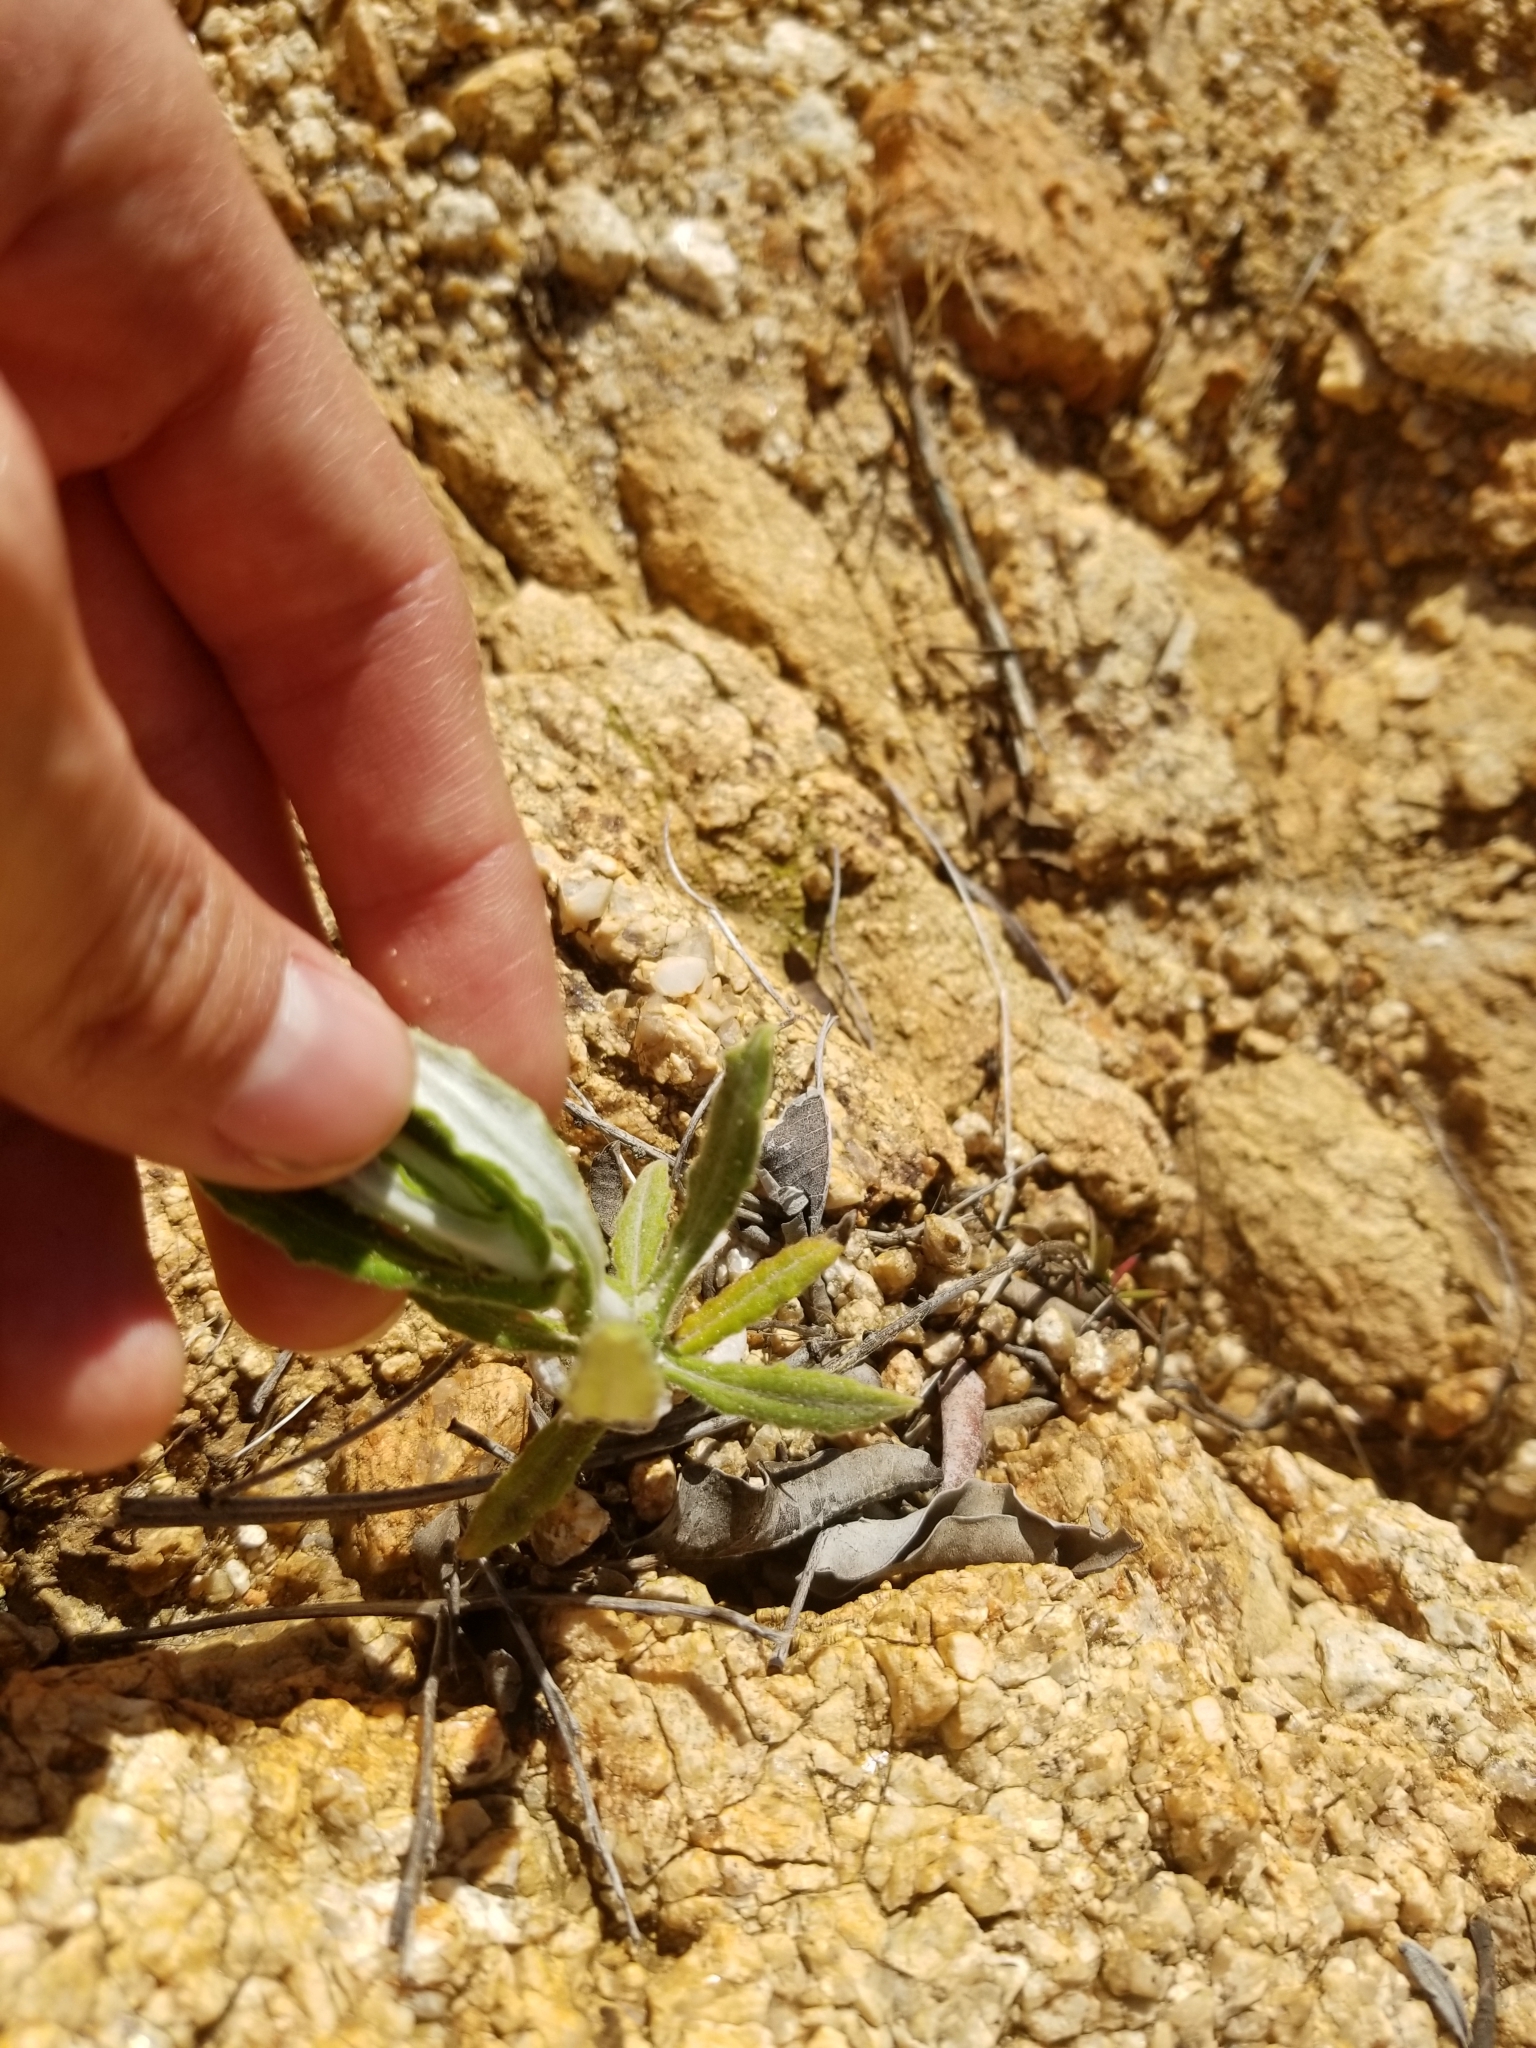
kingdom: Plantae
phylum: Tracheophyta
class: Magnoliopsida
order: Asterales
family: Asteraceae
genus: Pseudognaphalium
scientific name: Pseudognaphalium biolettii
